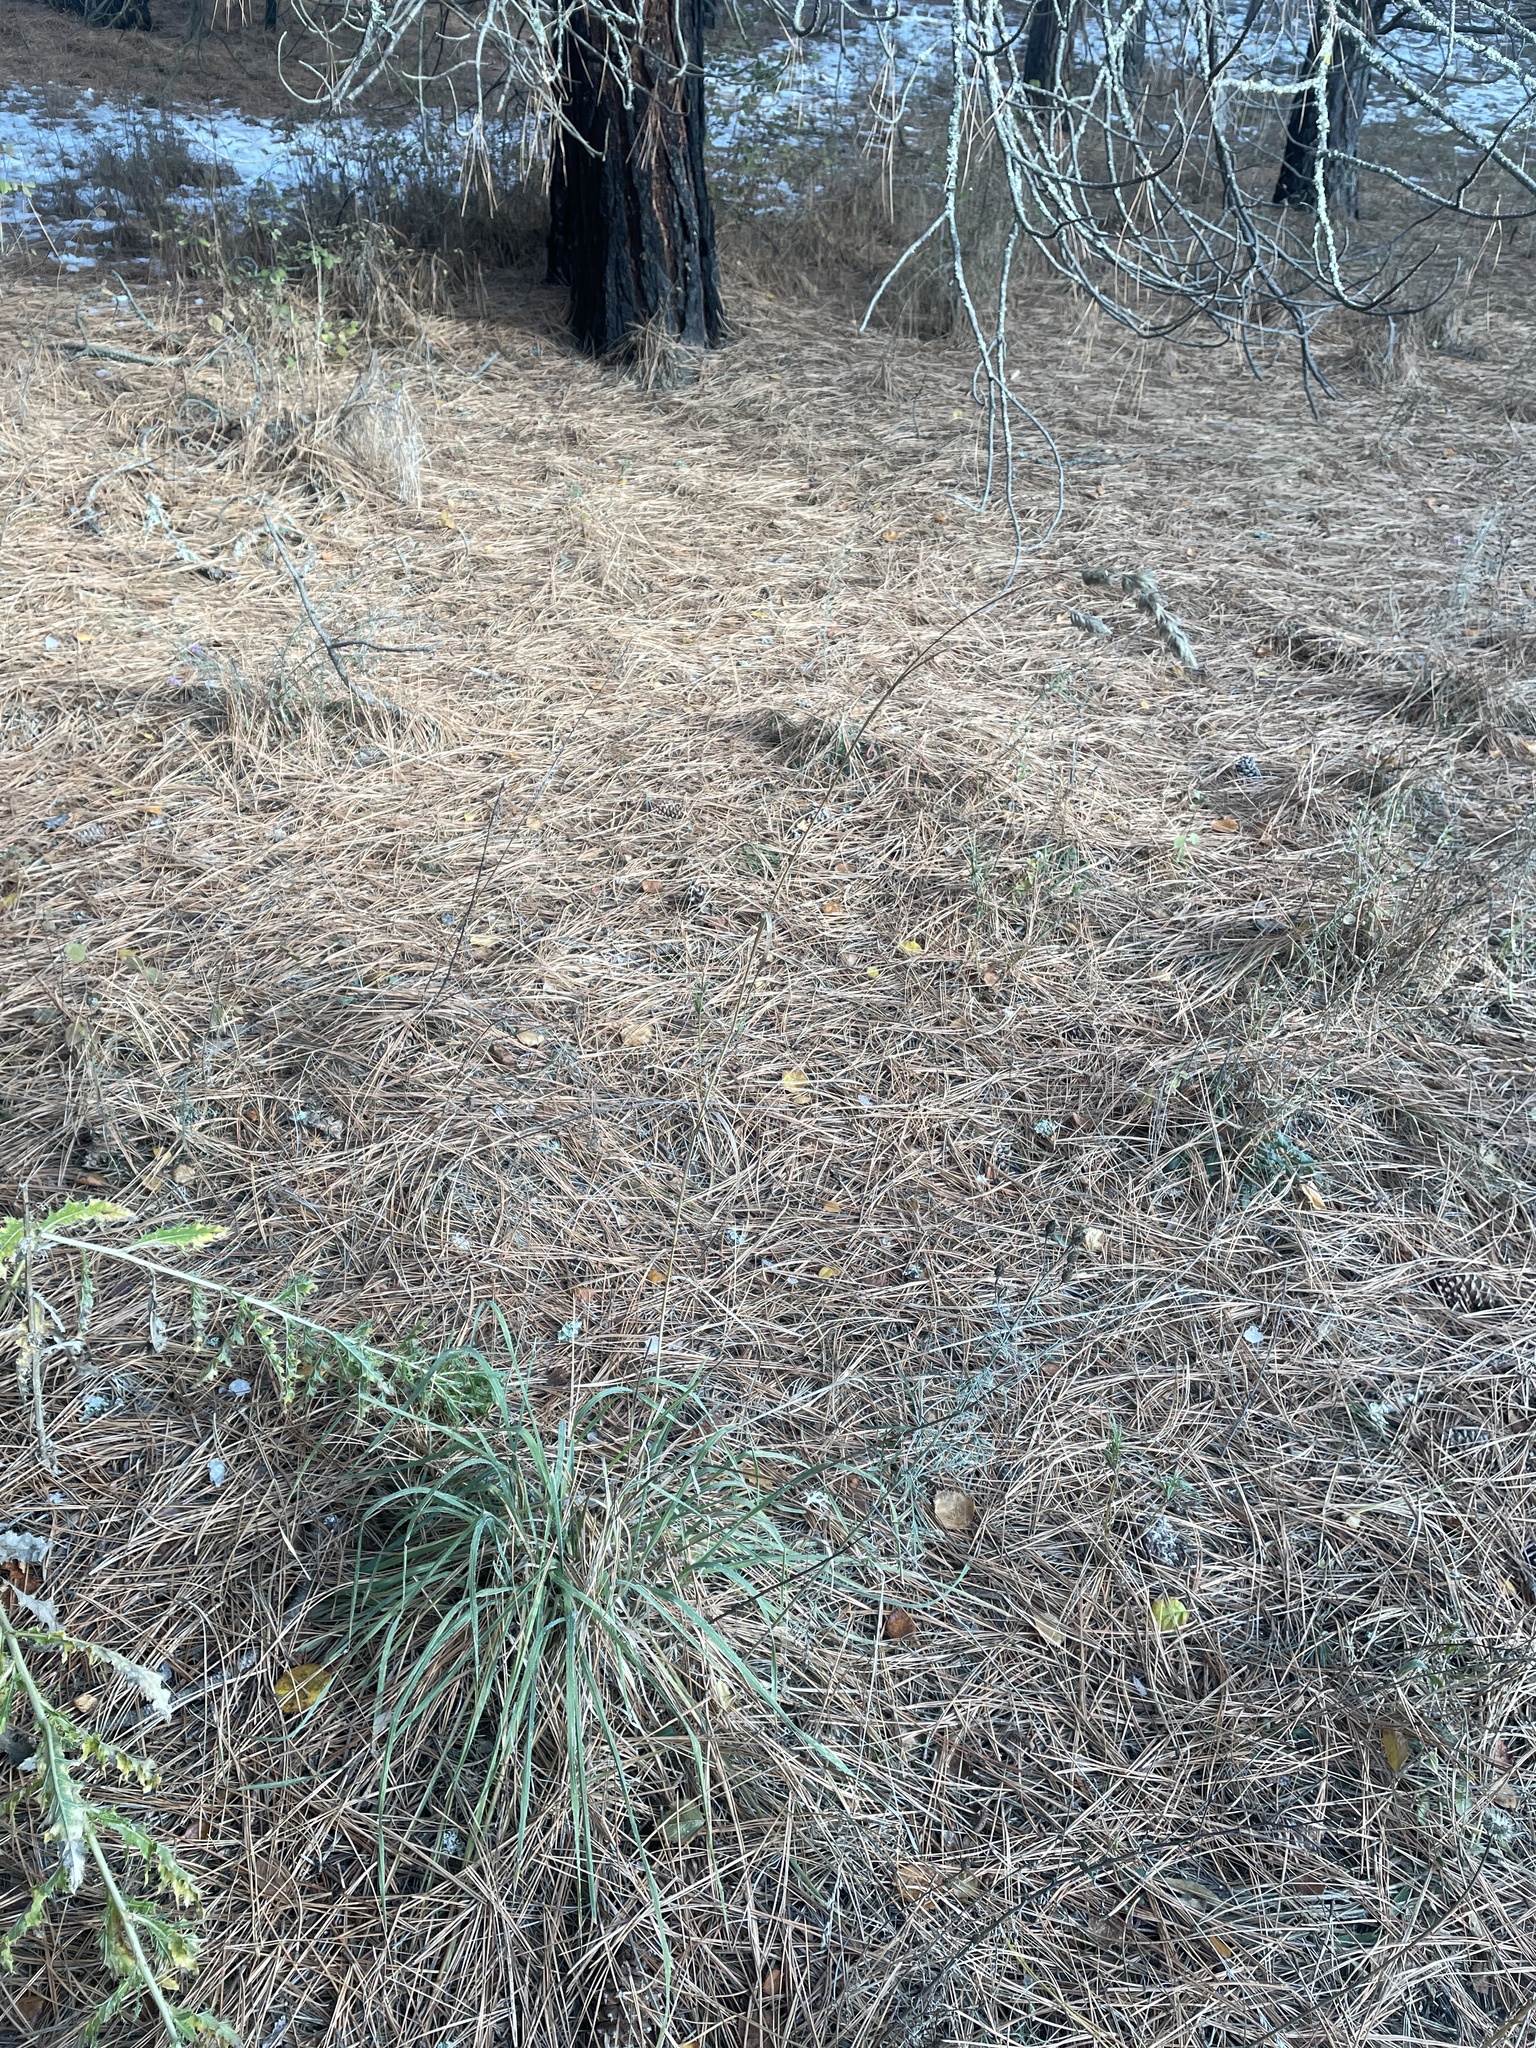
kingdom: Plantae
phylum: Tracheophyta
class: Liliopsida
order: Poales
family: Poaceae
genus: Dactylis
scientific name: Dactylis glomerata
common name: Orchardgrass
